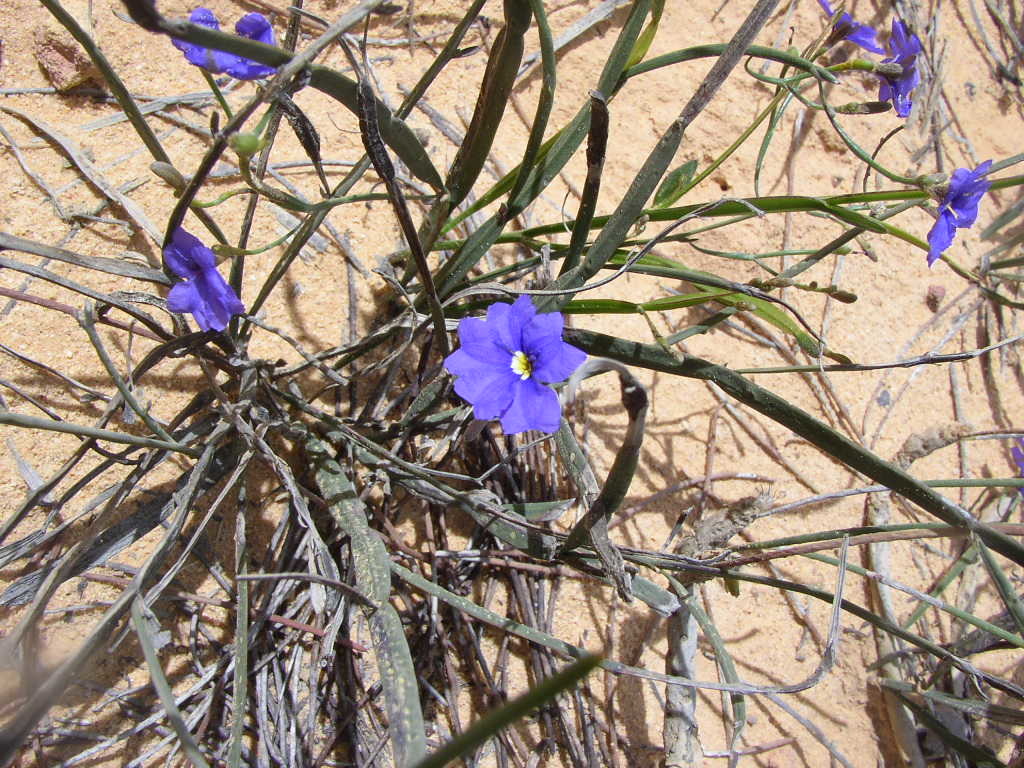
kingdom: Plantae
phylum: Tracheophyta
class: Magnoliopsida
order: Asterales
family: Goodeniaceae
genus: Dampiera
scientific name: Dampiera lindleyi
